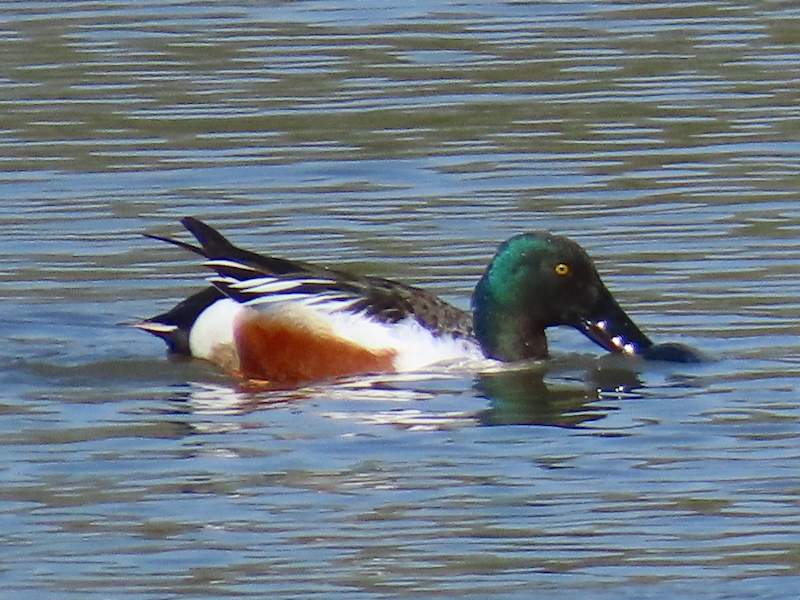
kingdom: Animalia
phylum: Chordata
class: Aves
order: Anseriformes
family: Anatidae
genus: Spatula
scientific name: Spatula clypeata
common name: Northern shoveler
